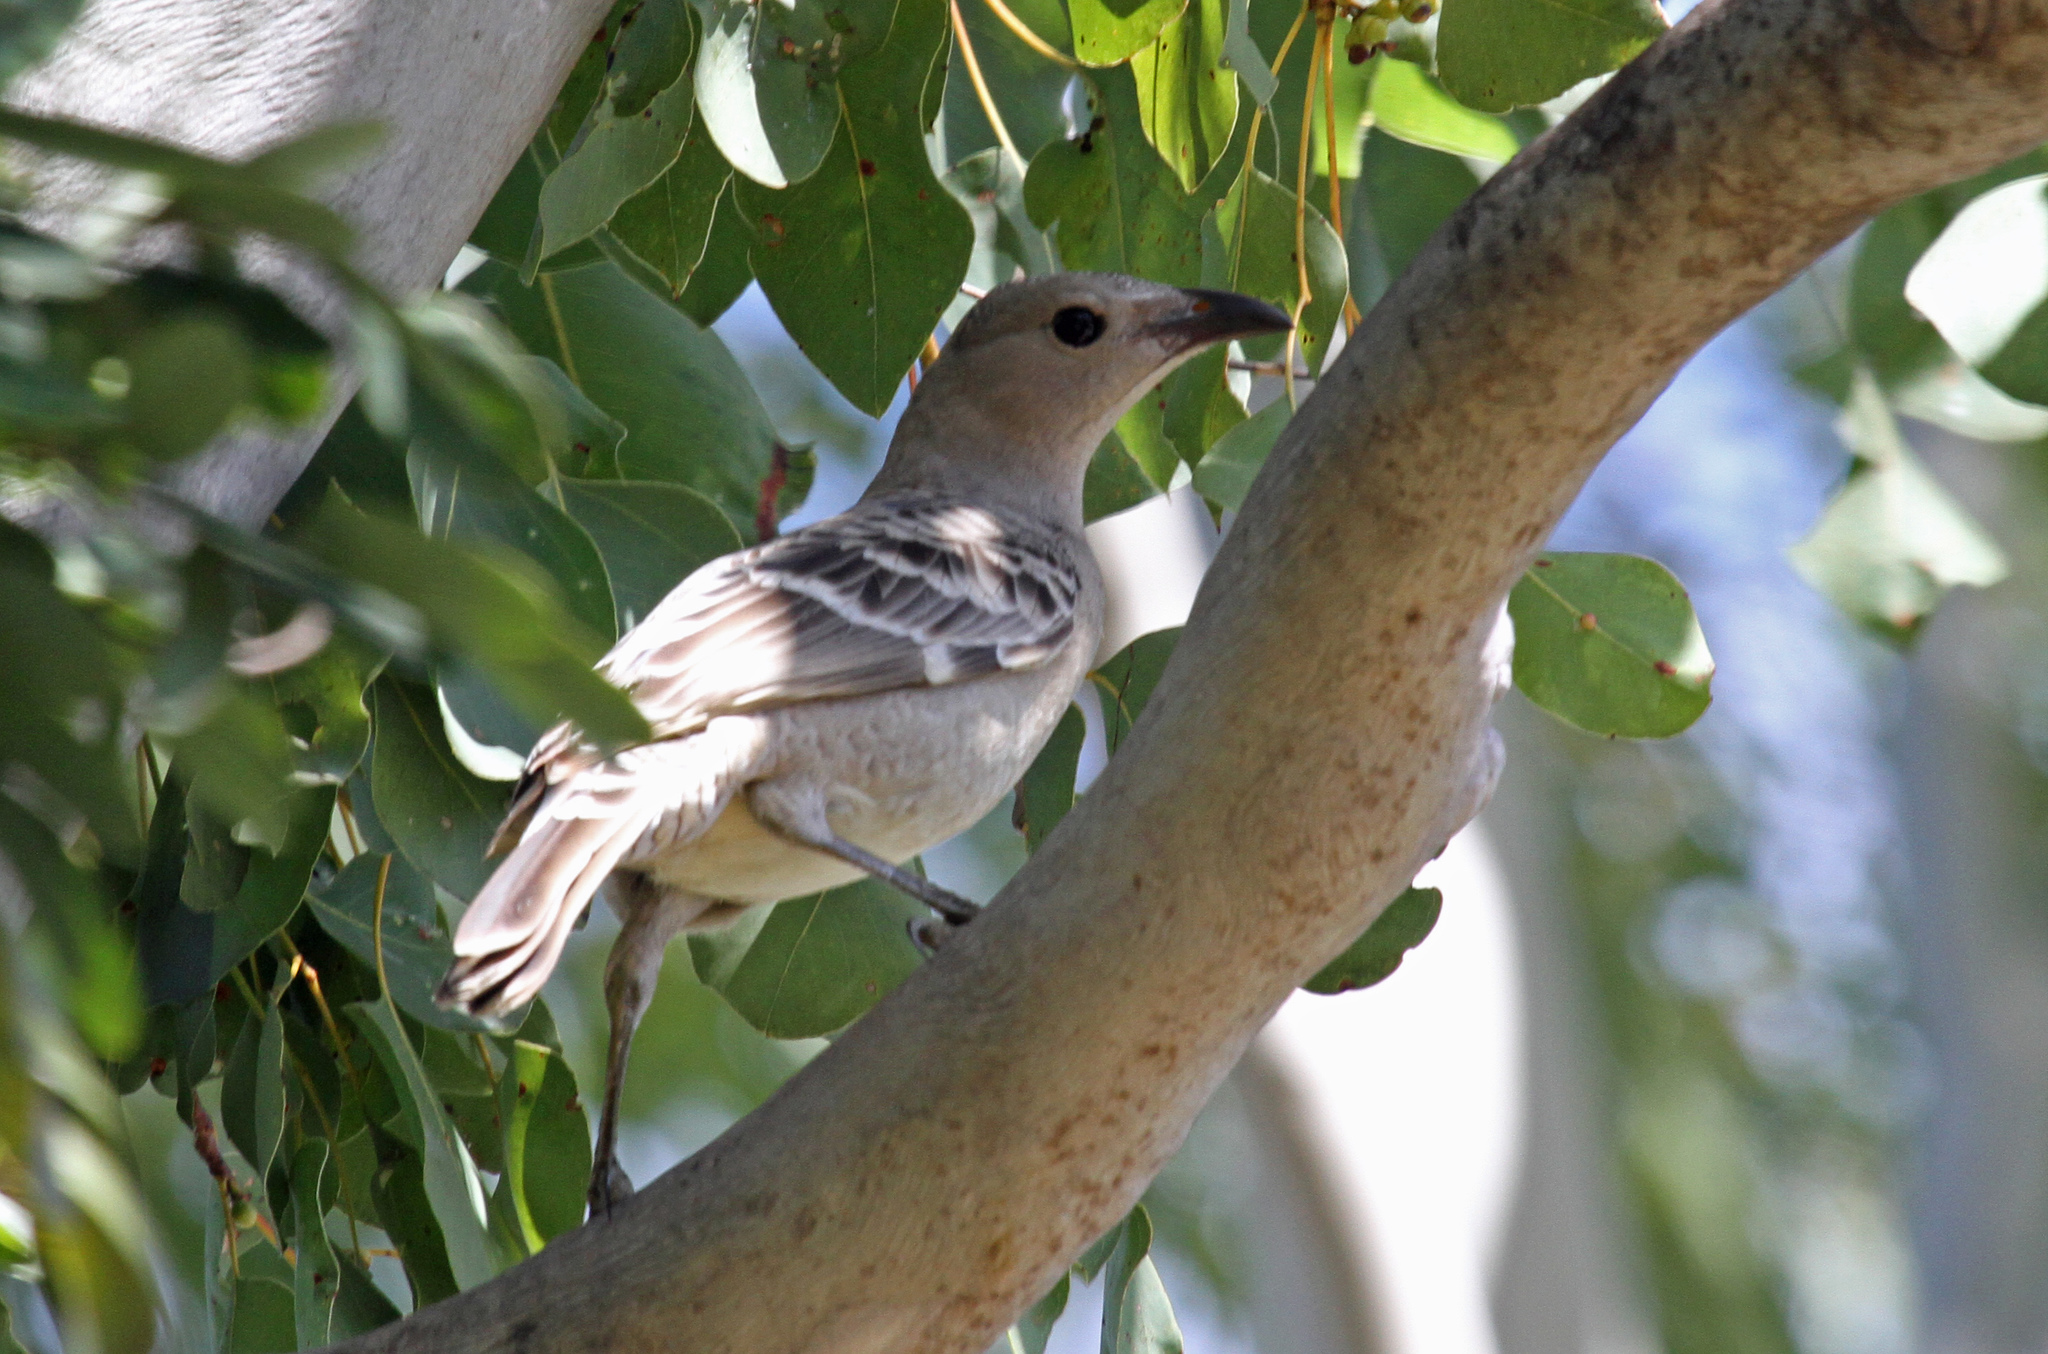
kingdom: Animalia
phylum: Chordata
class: Aves
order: Passeriformes
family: Ptilonorhynchidae
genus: Chlamydera
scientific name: Chlamydera nuchalis
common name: Great bowerbird
